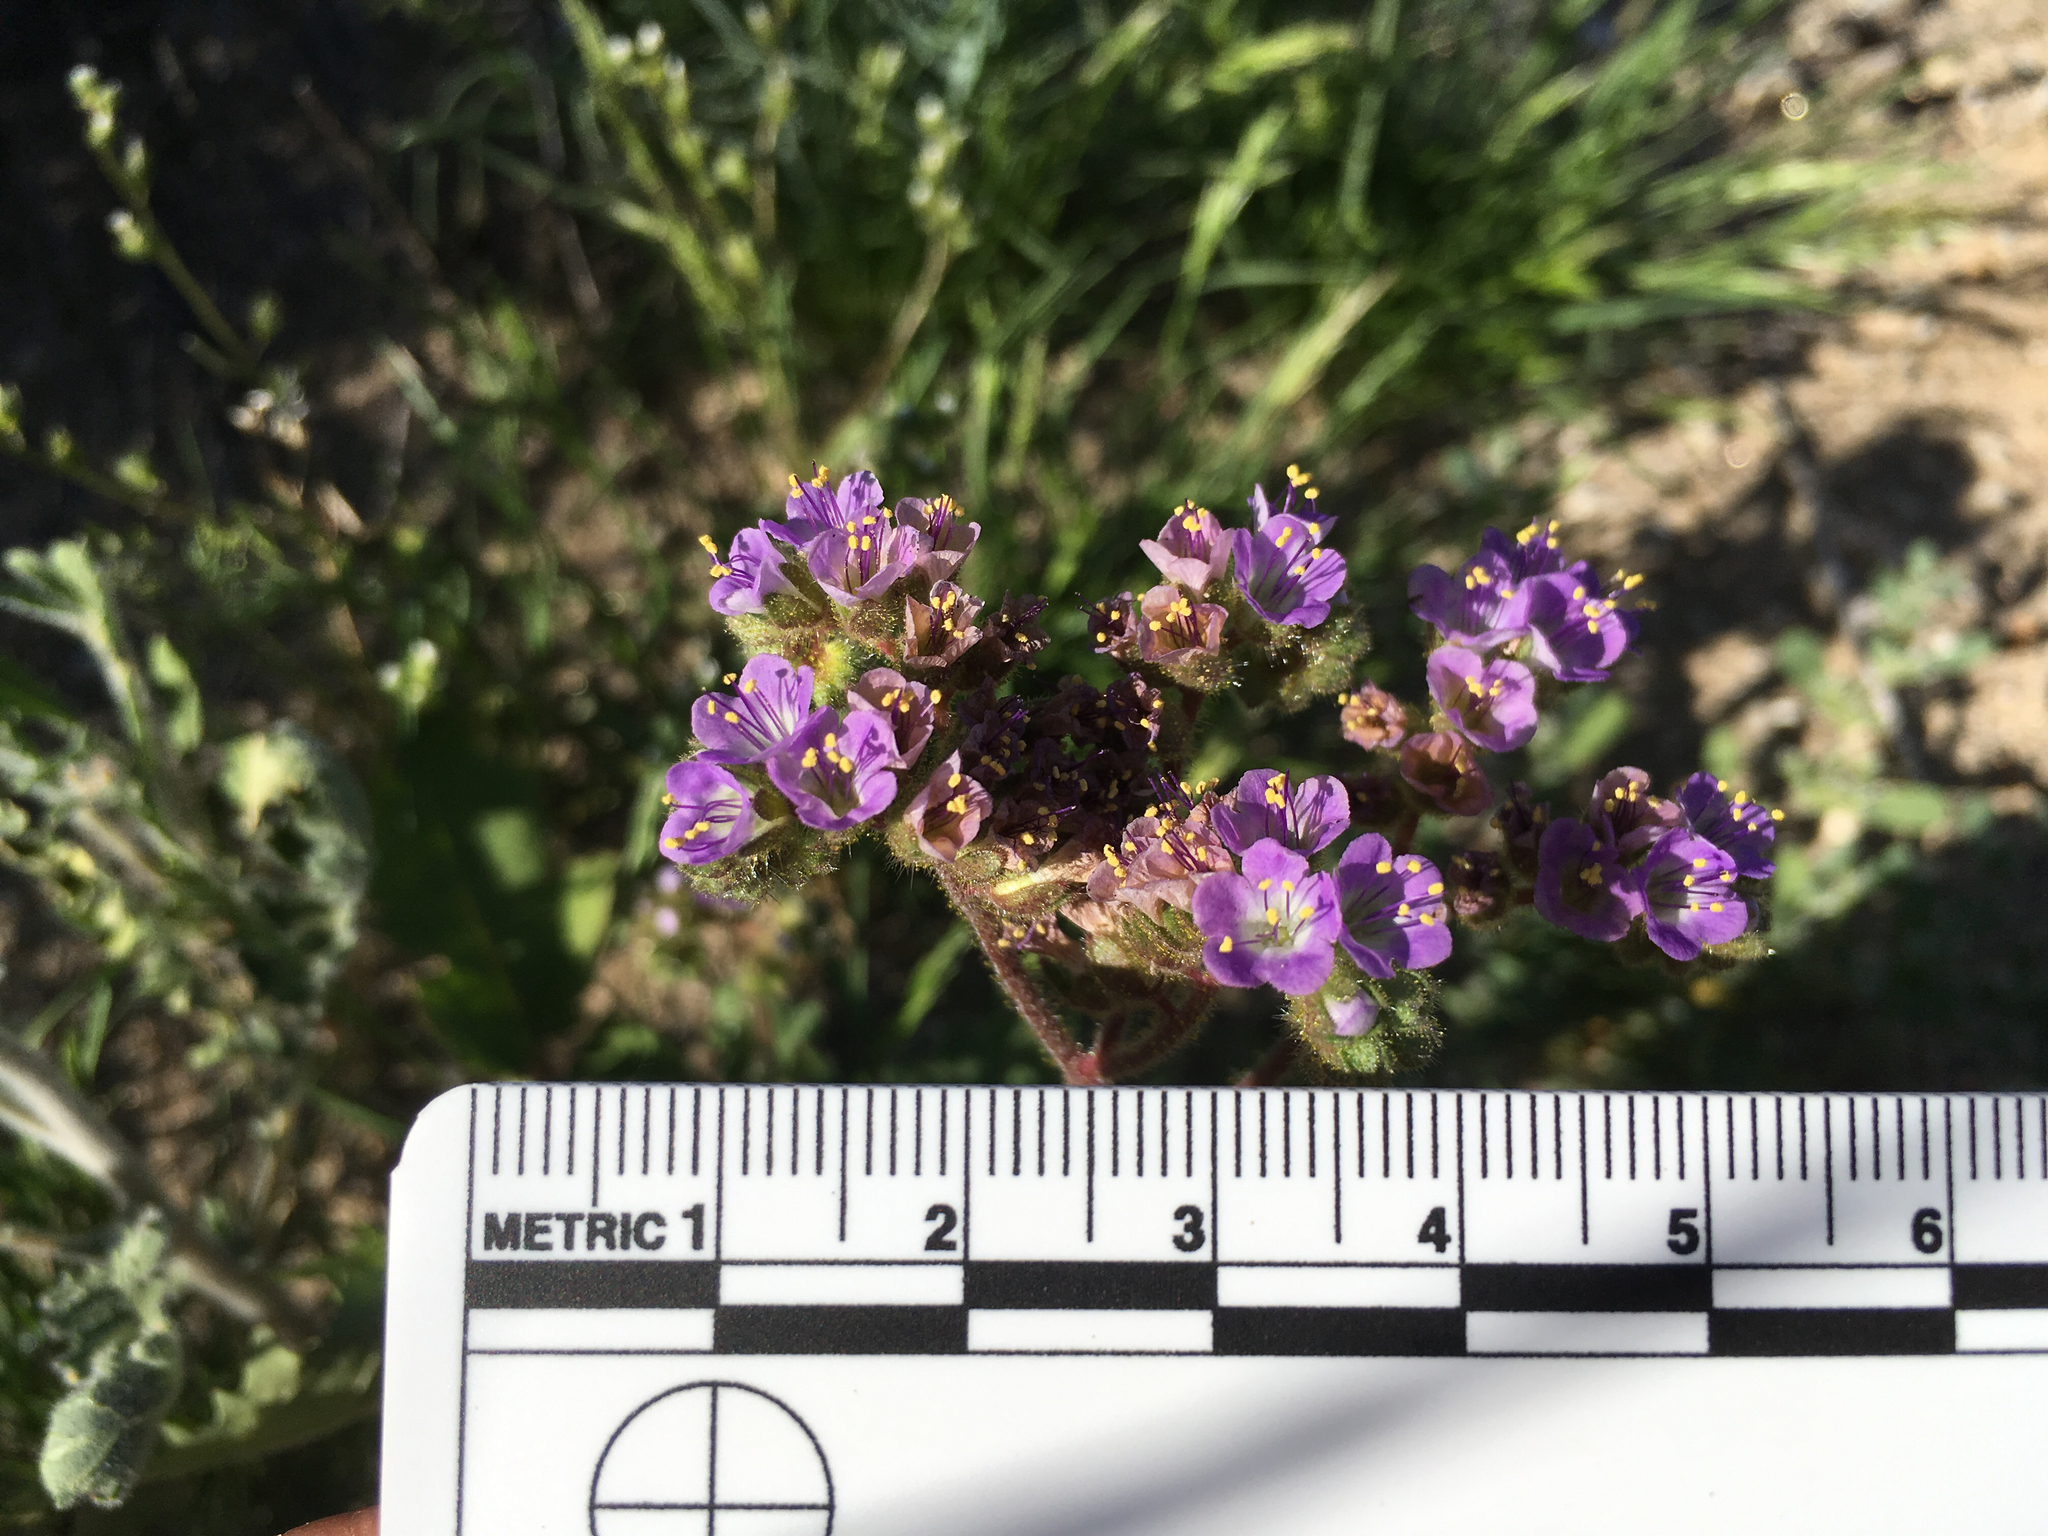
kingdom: Plantae
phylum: Tracheophyta
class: Magnoliopsida
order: Boraginales
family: Hydrophyllaceae
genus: Phacelia
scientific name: Phacelia crenulata
